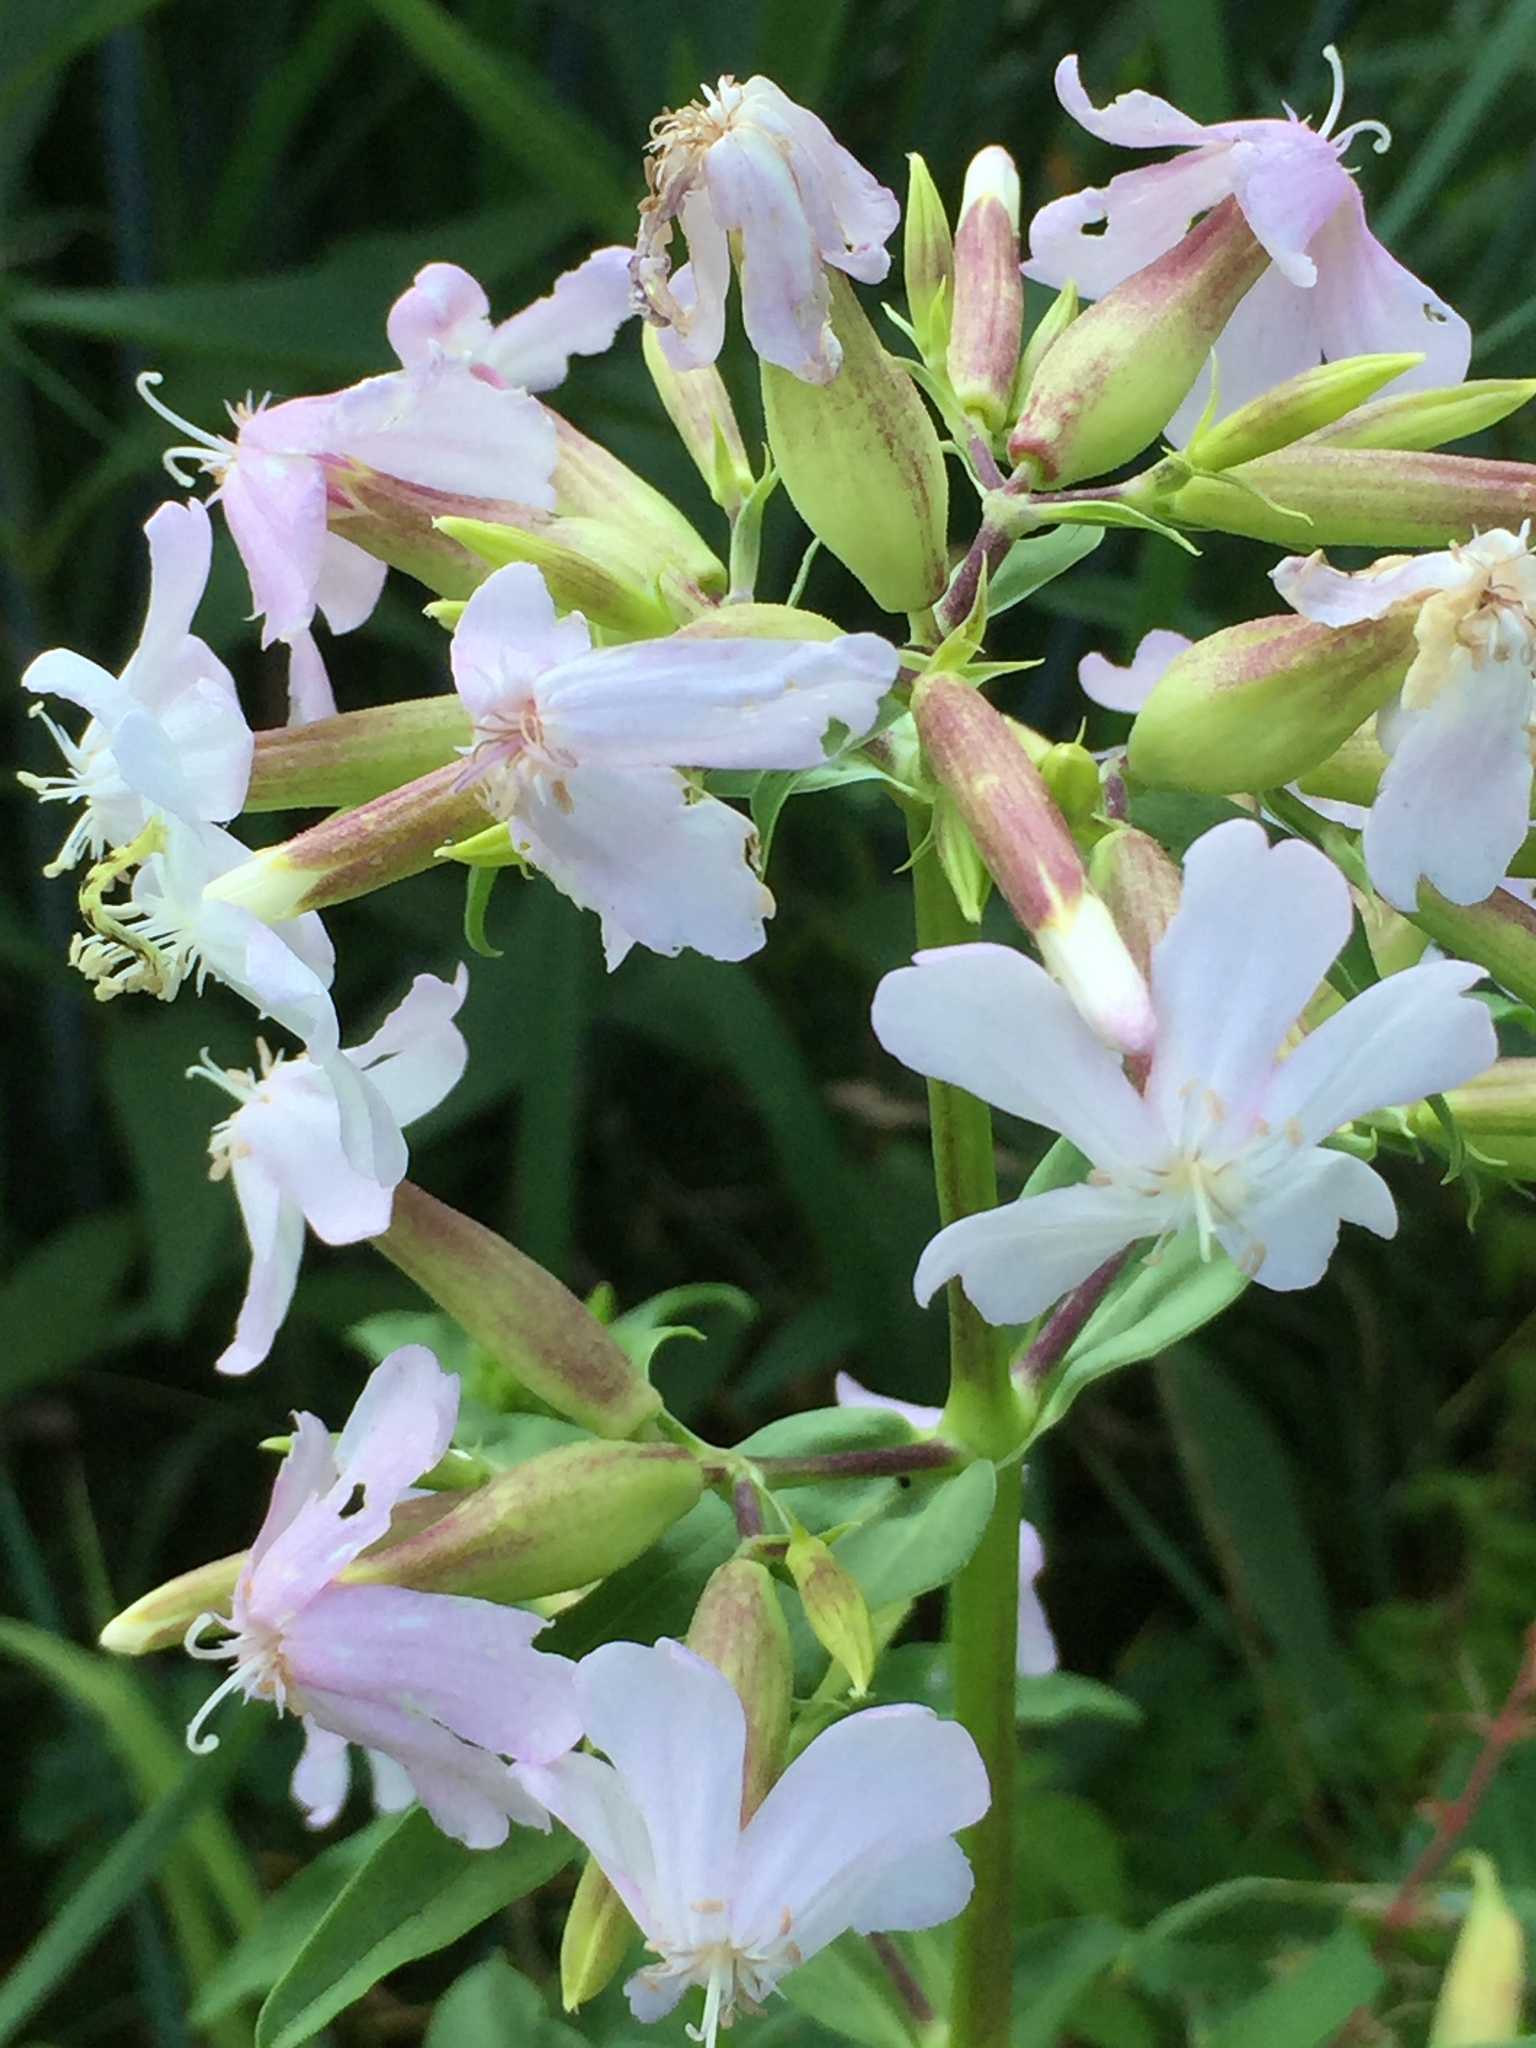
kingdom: Plantae
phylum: Tracheophyta
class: Magnoliopsida
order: Caryophyllales
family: Caryophyllaceae
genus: Saponaria
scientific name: Saponaria officinalis
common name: Soapwort
